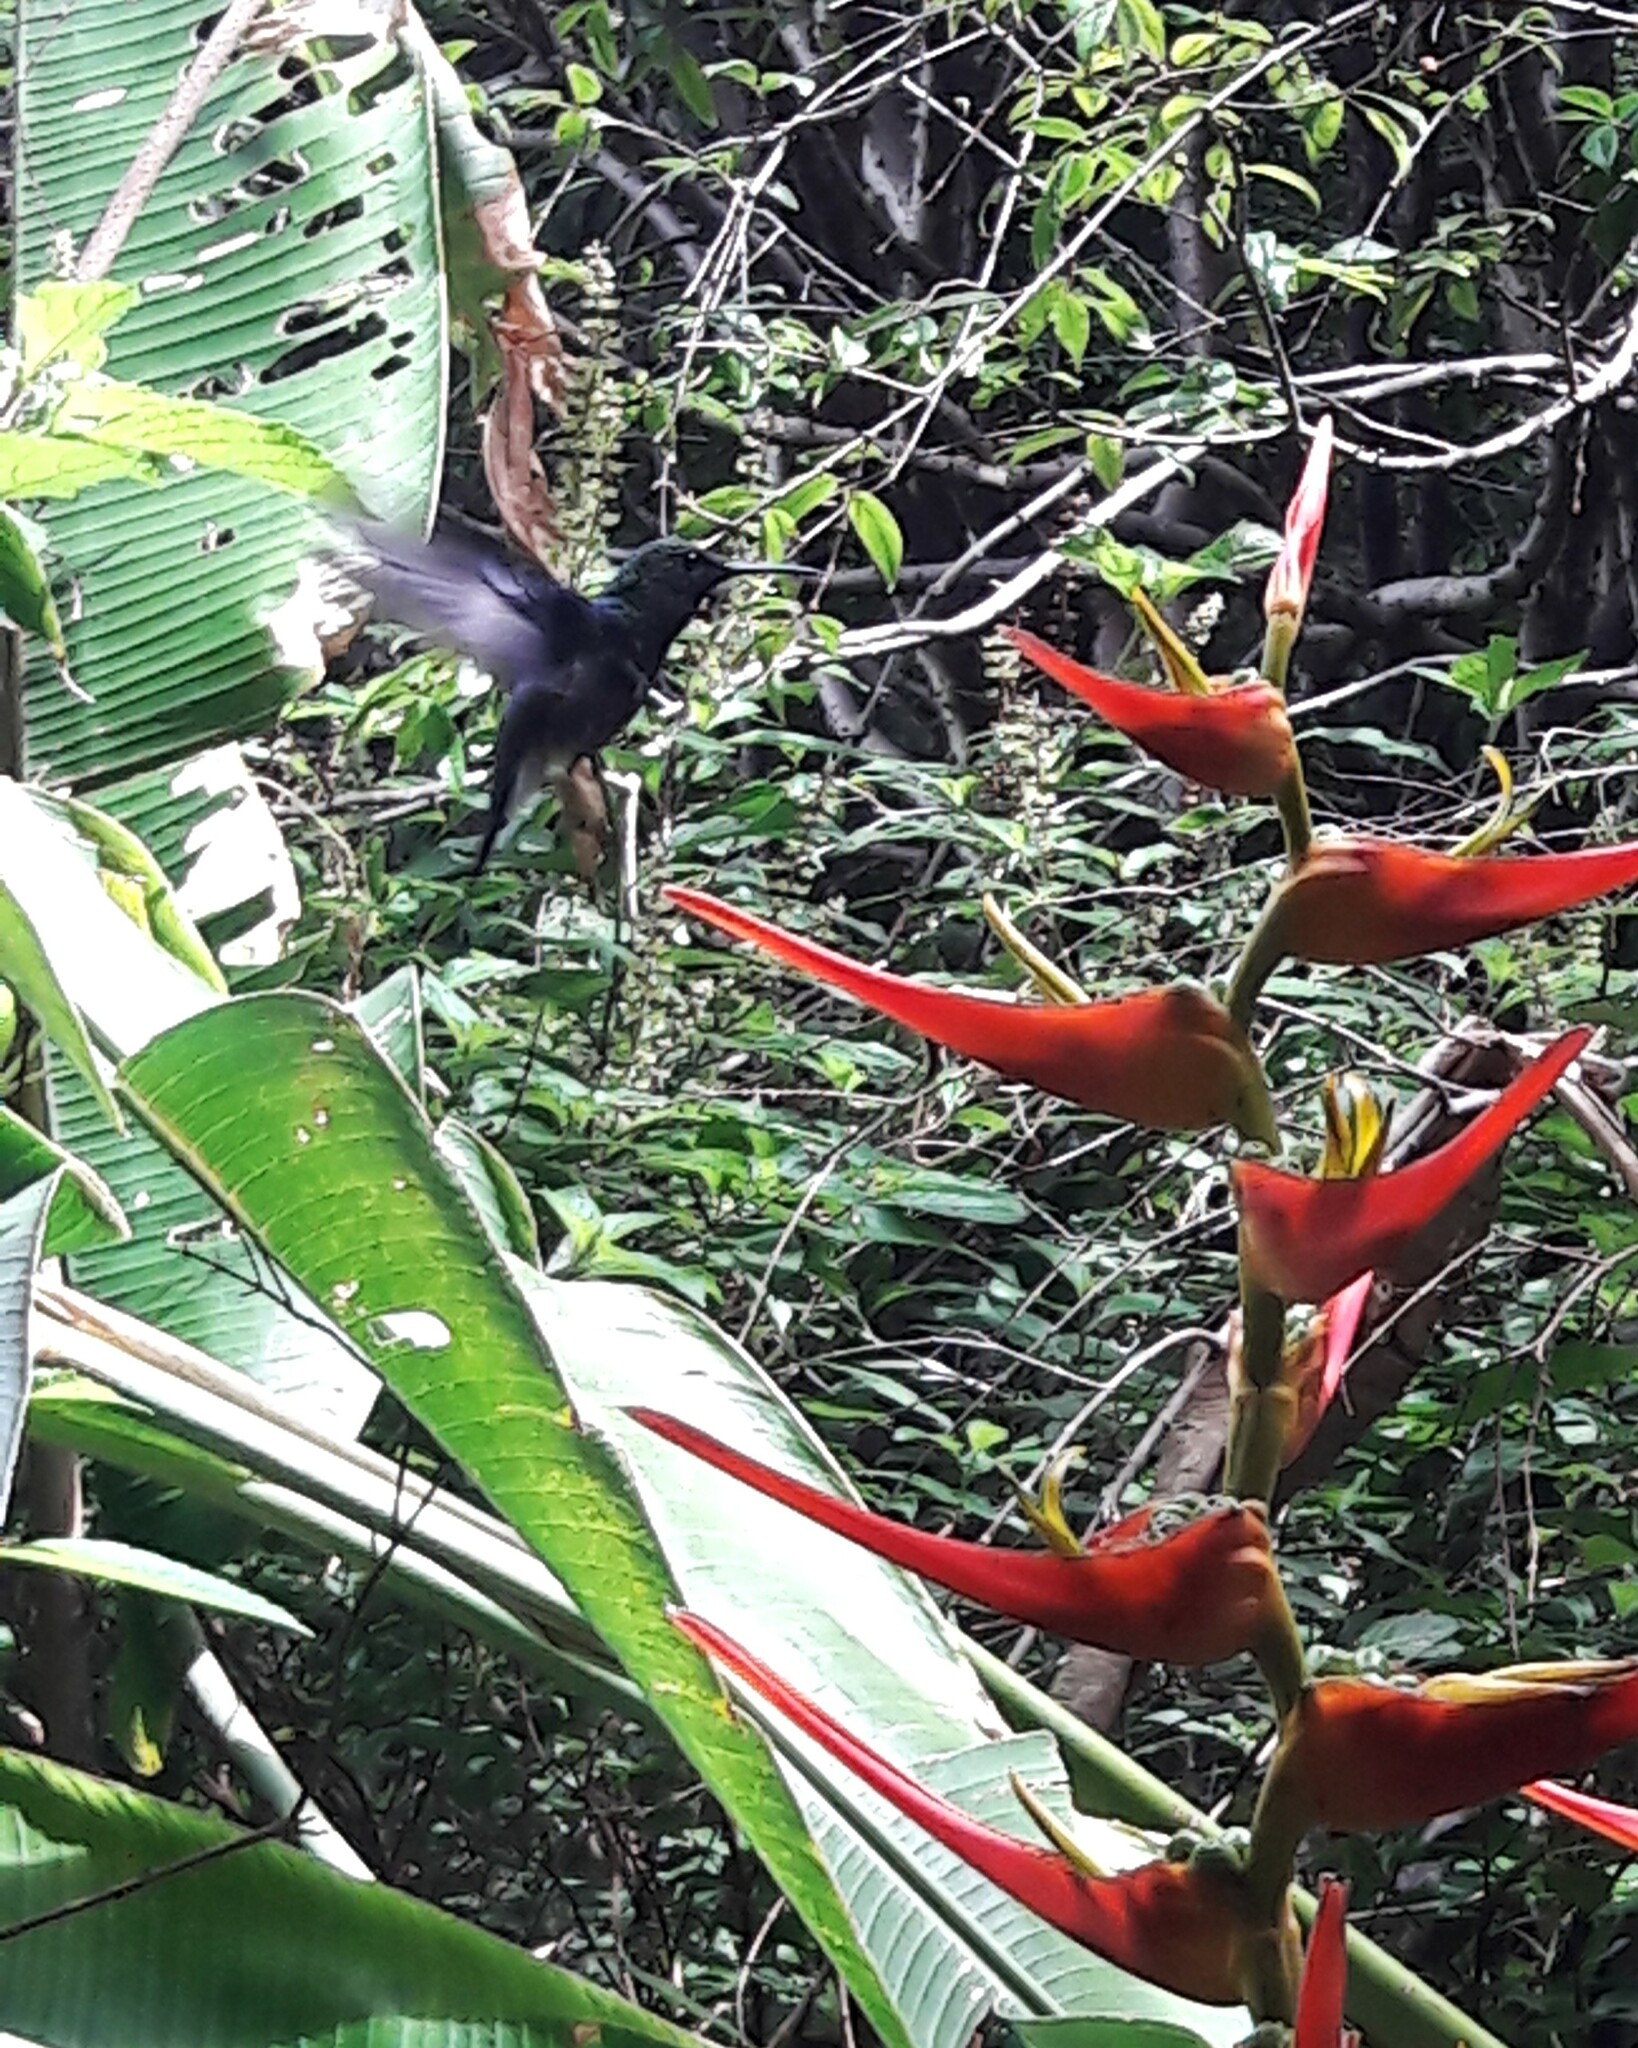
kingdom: Animalia
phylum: Chordata
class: Aves
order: Apodiformes
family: Trochilidae
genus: Thalurania
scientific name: Thalurania furcata
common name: Fork-tailed woodnymph
